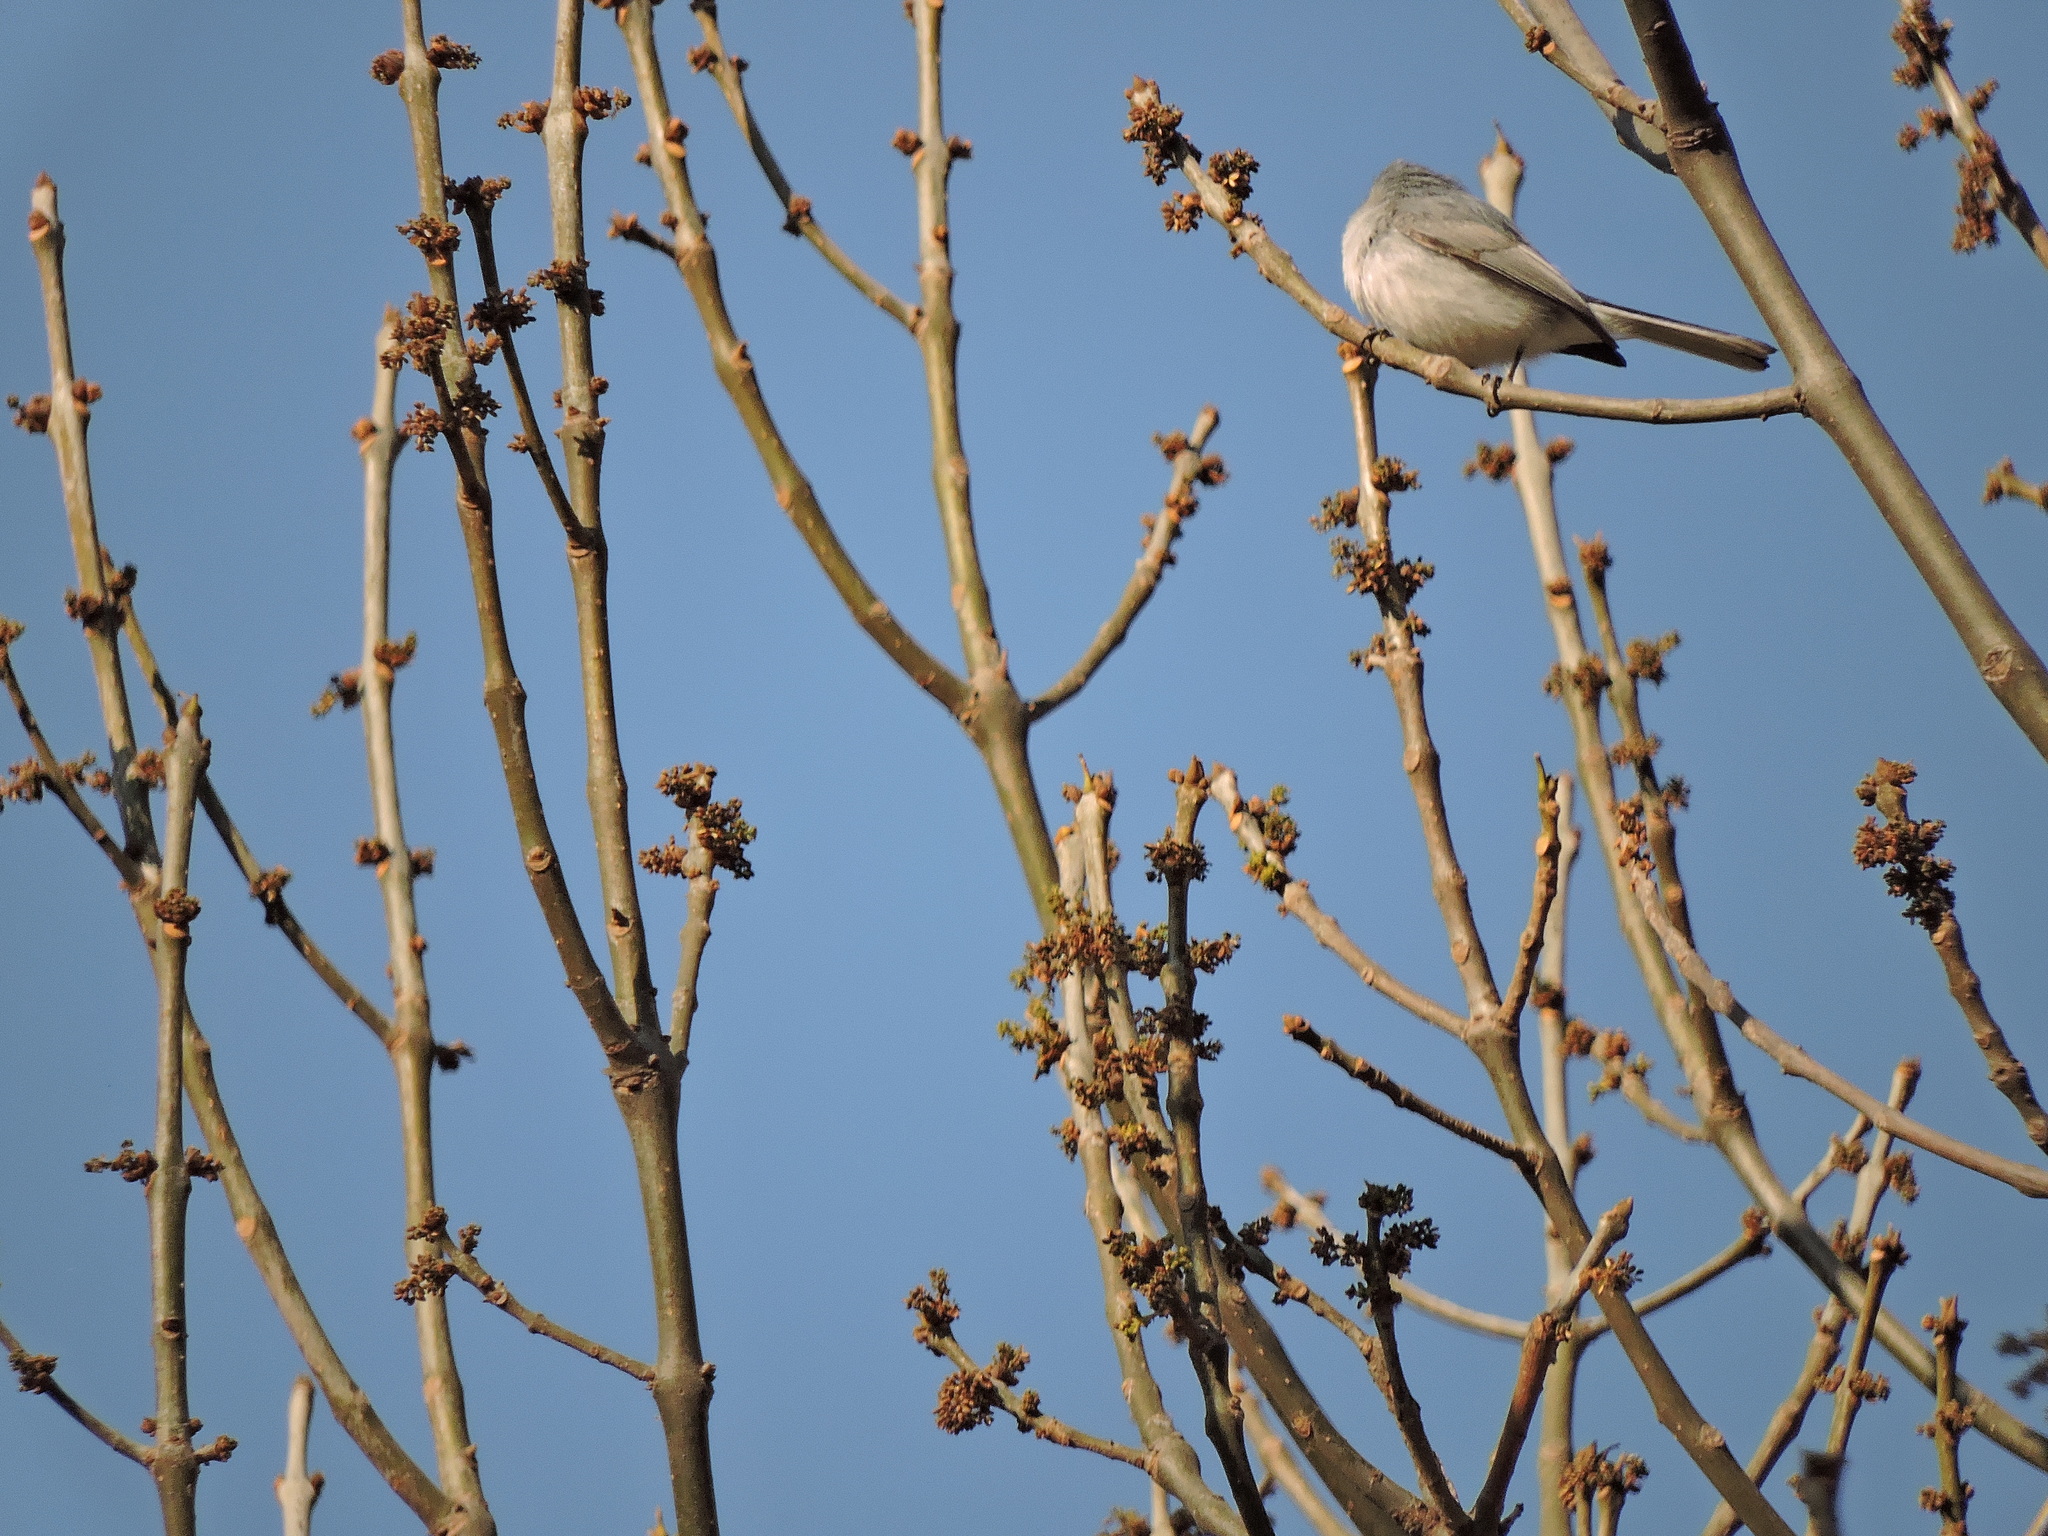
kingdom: Animalia
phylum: Chordata
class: Aves
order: Passeriformes
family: Polioptilidae
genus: Polioptila
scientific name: Polioptila caerulea
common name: Blue-gray gnatcatcher
